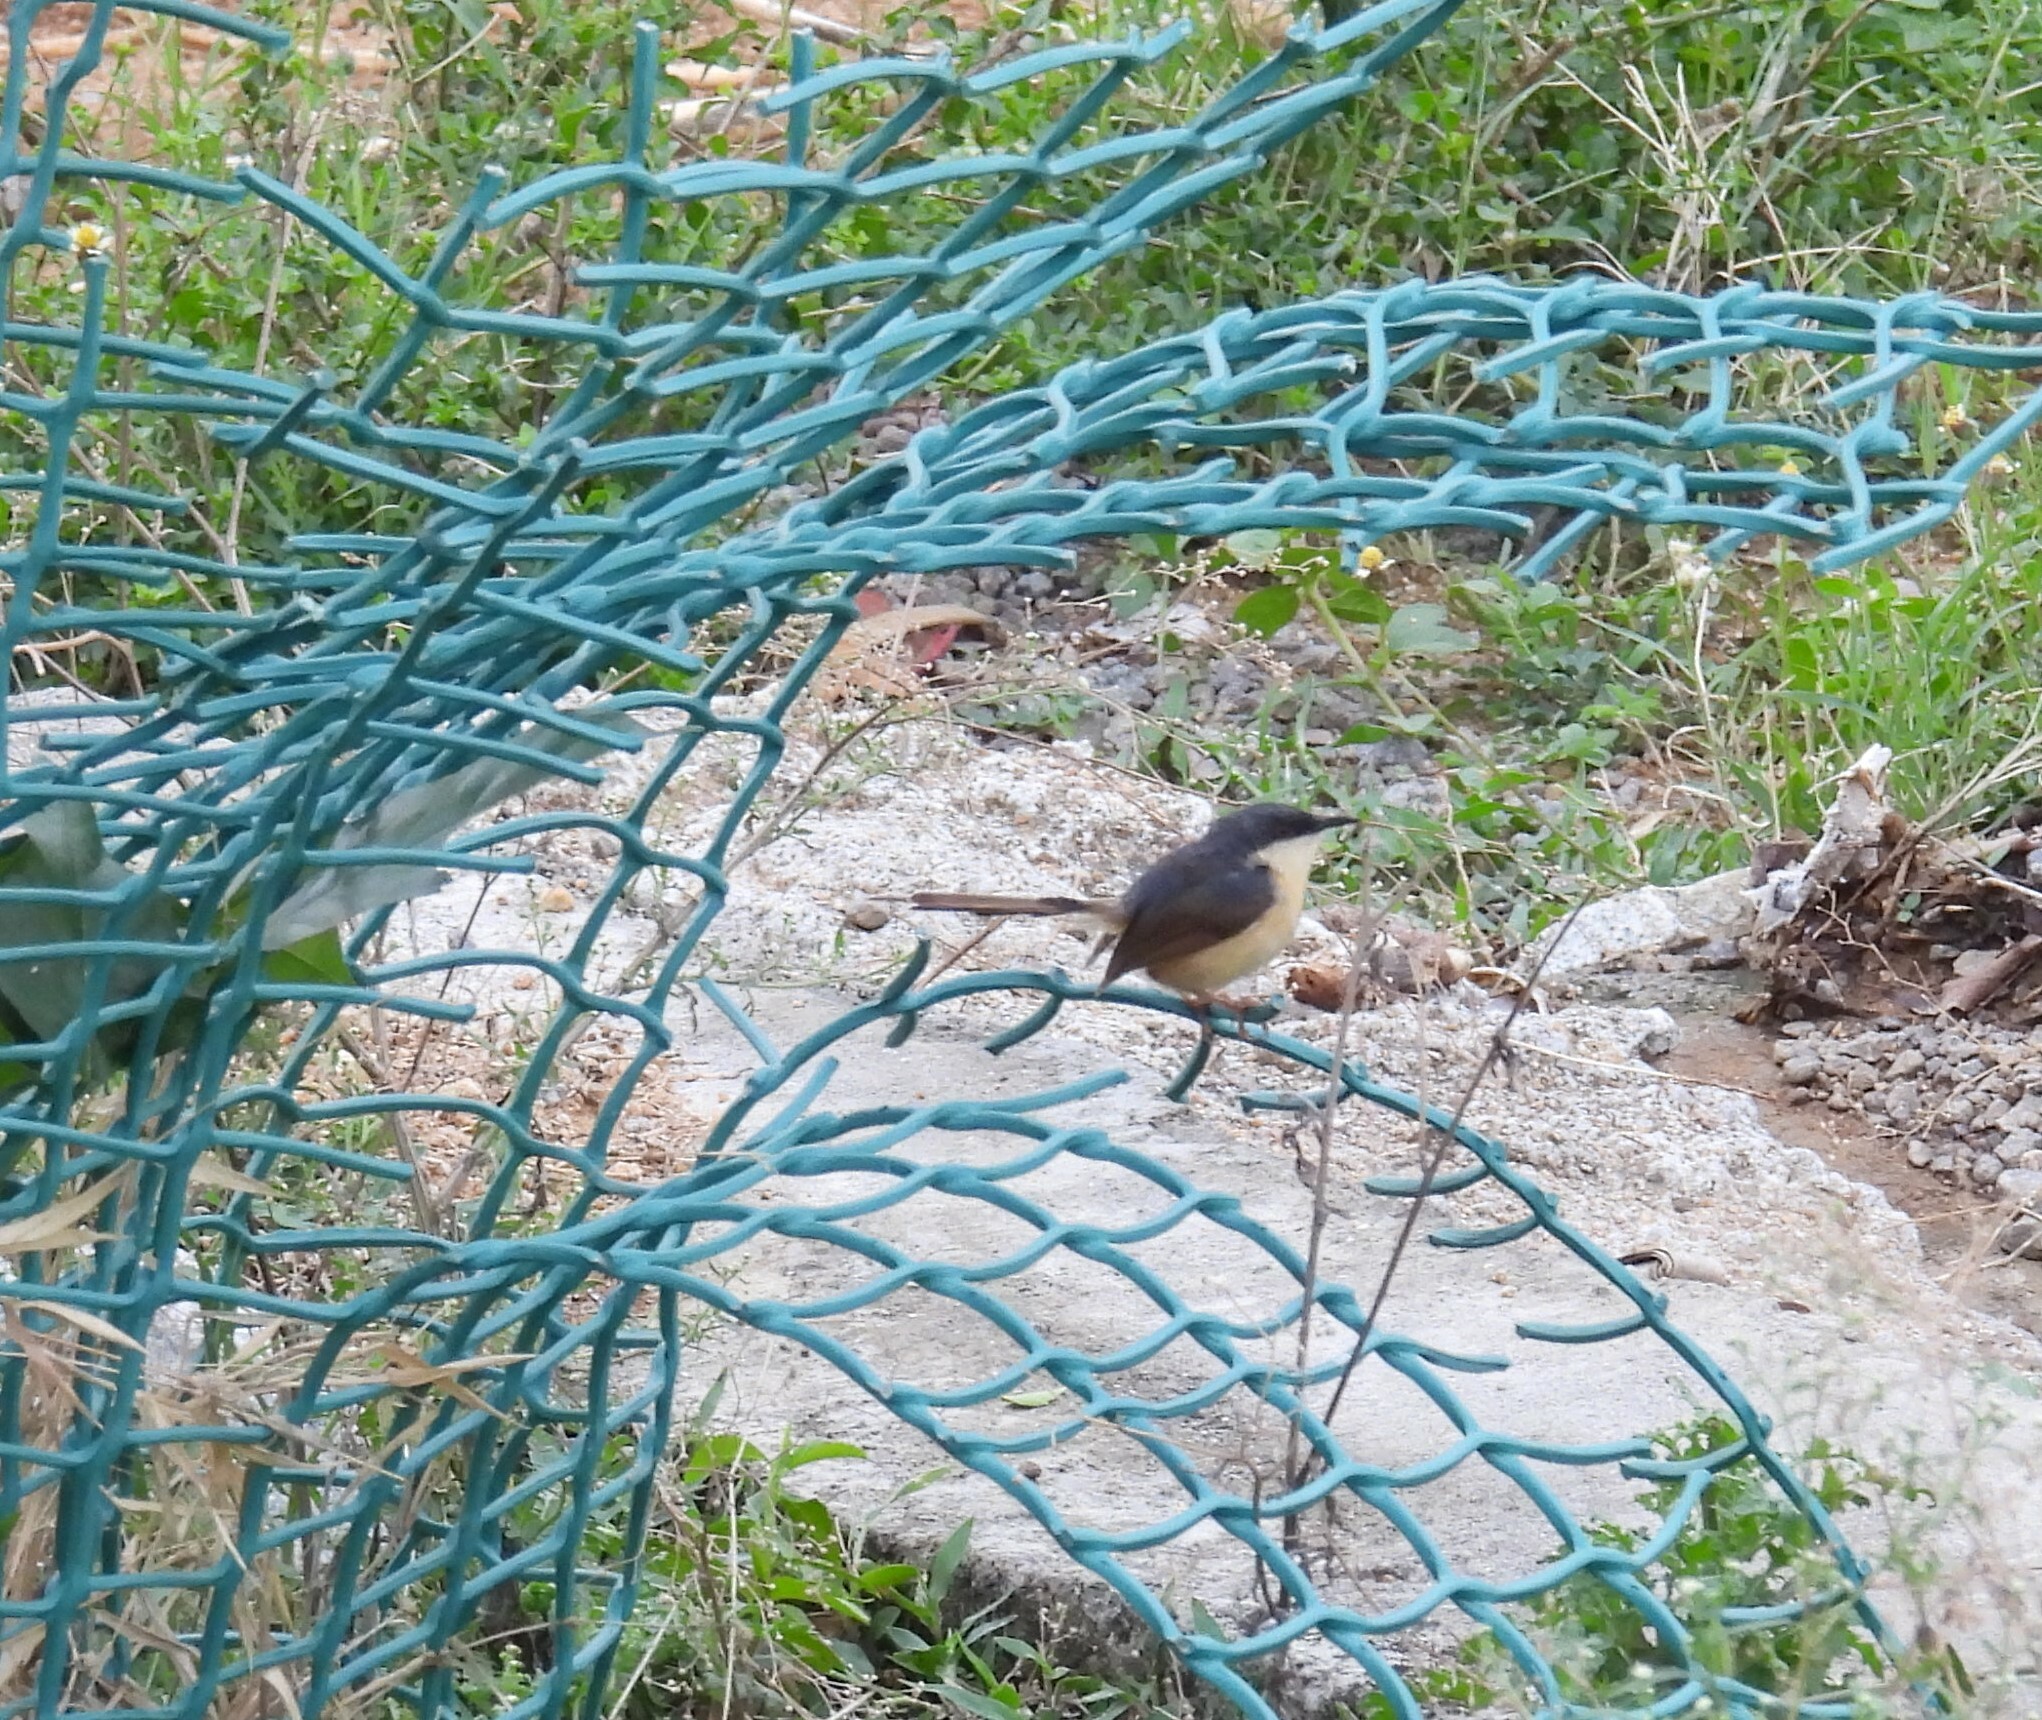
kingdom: Animalia
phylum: Chordata
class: Aves
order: Passeriformes
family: Cisticolidae
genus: Prinia
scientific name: Prinia socialis
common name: Ashy prinia
